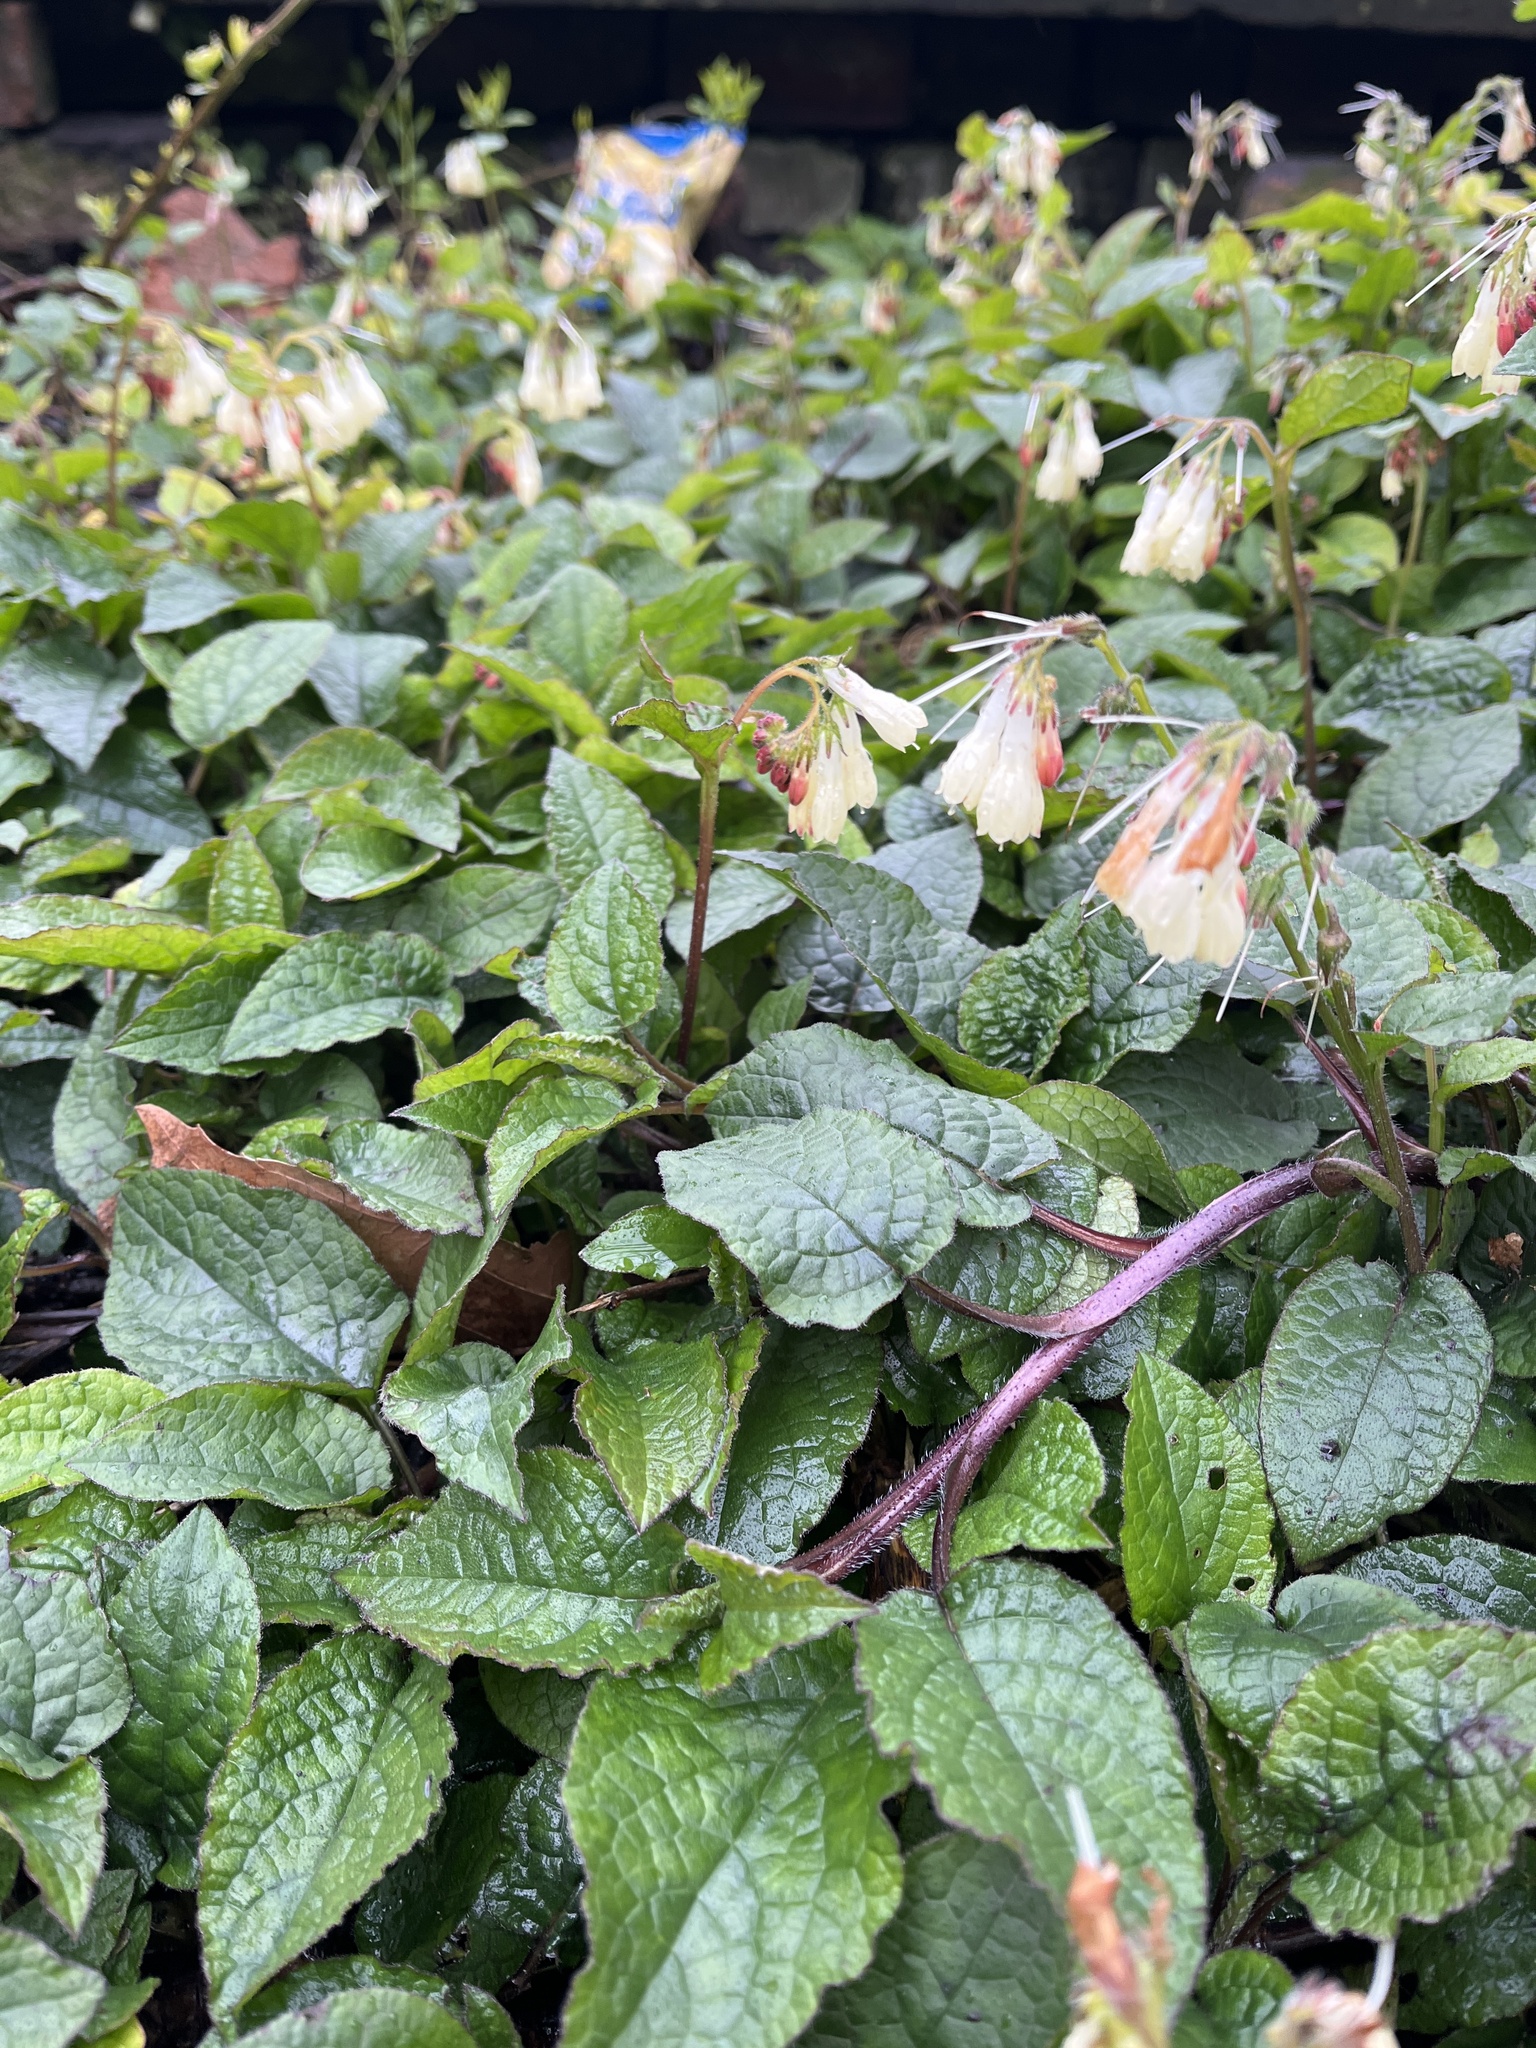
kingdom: Plantae
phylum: Tracheophyta
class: Magnoliopsida
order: Boraginales
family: Boraginaceae
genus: Symphytum
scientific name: Symphytum grandiflorum
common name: Creeping comfrey
